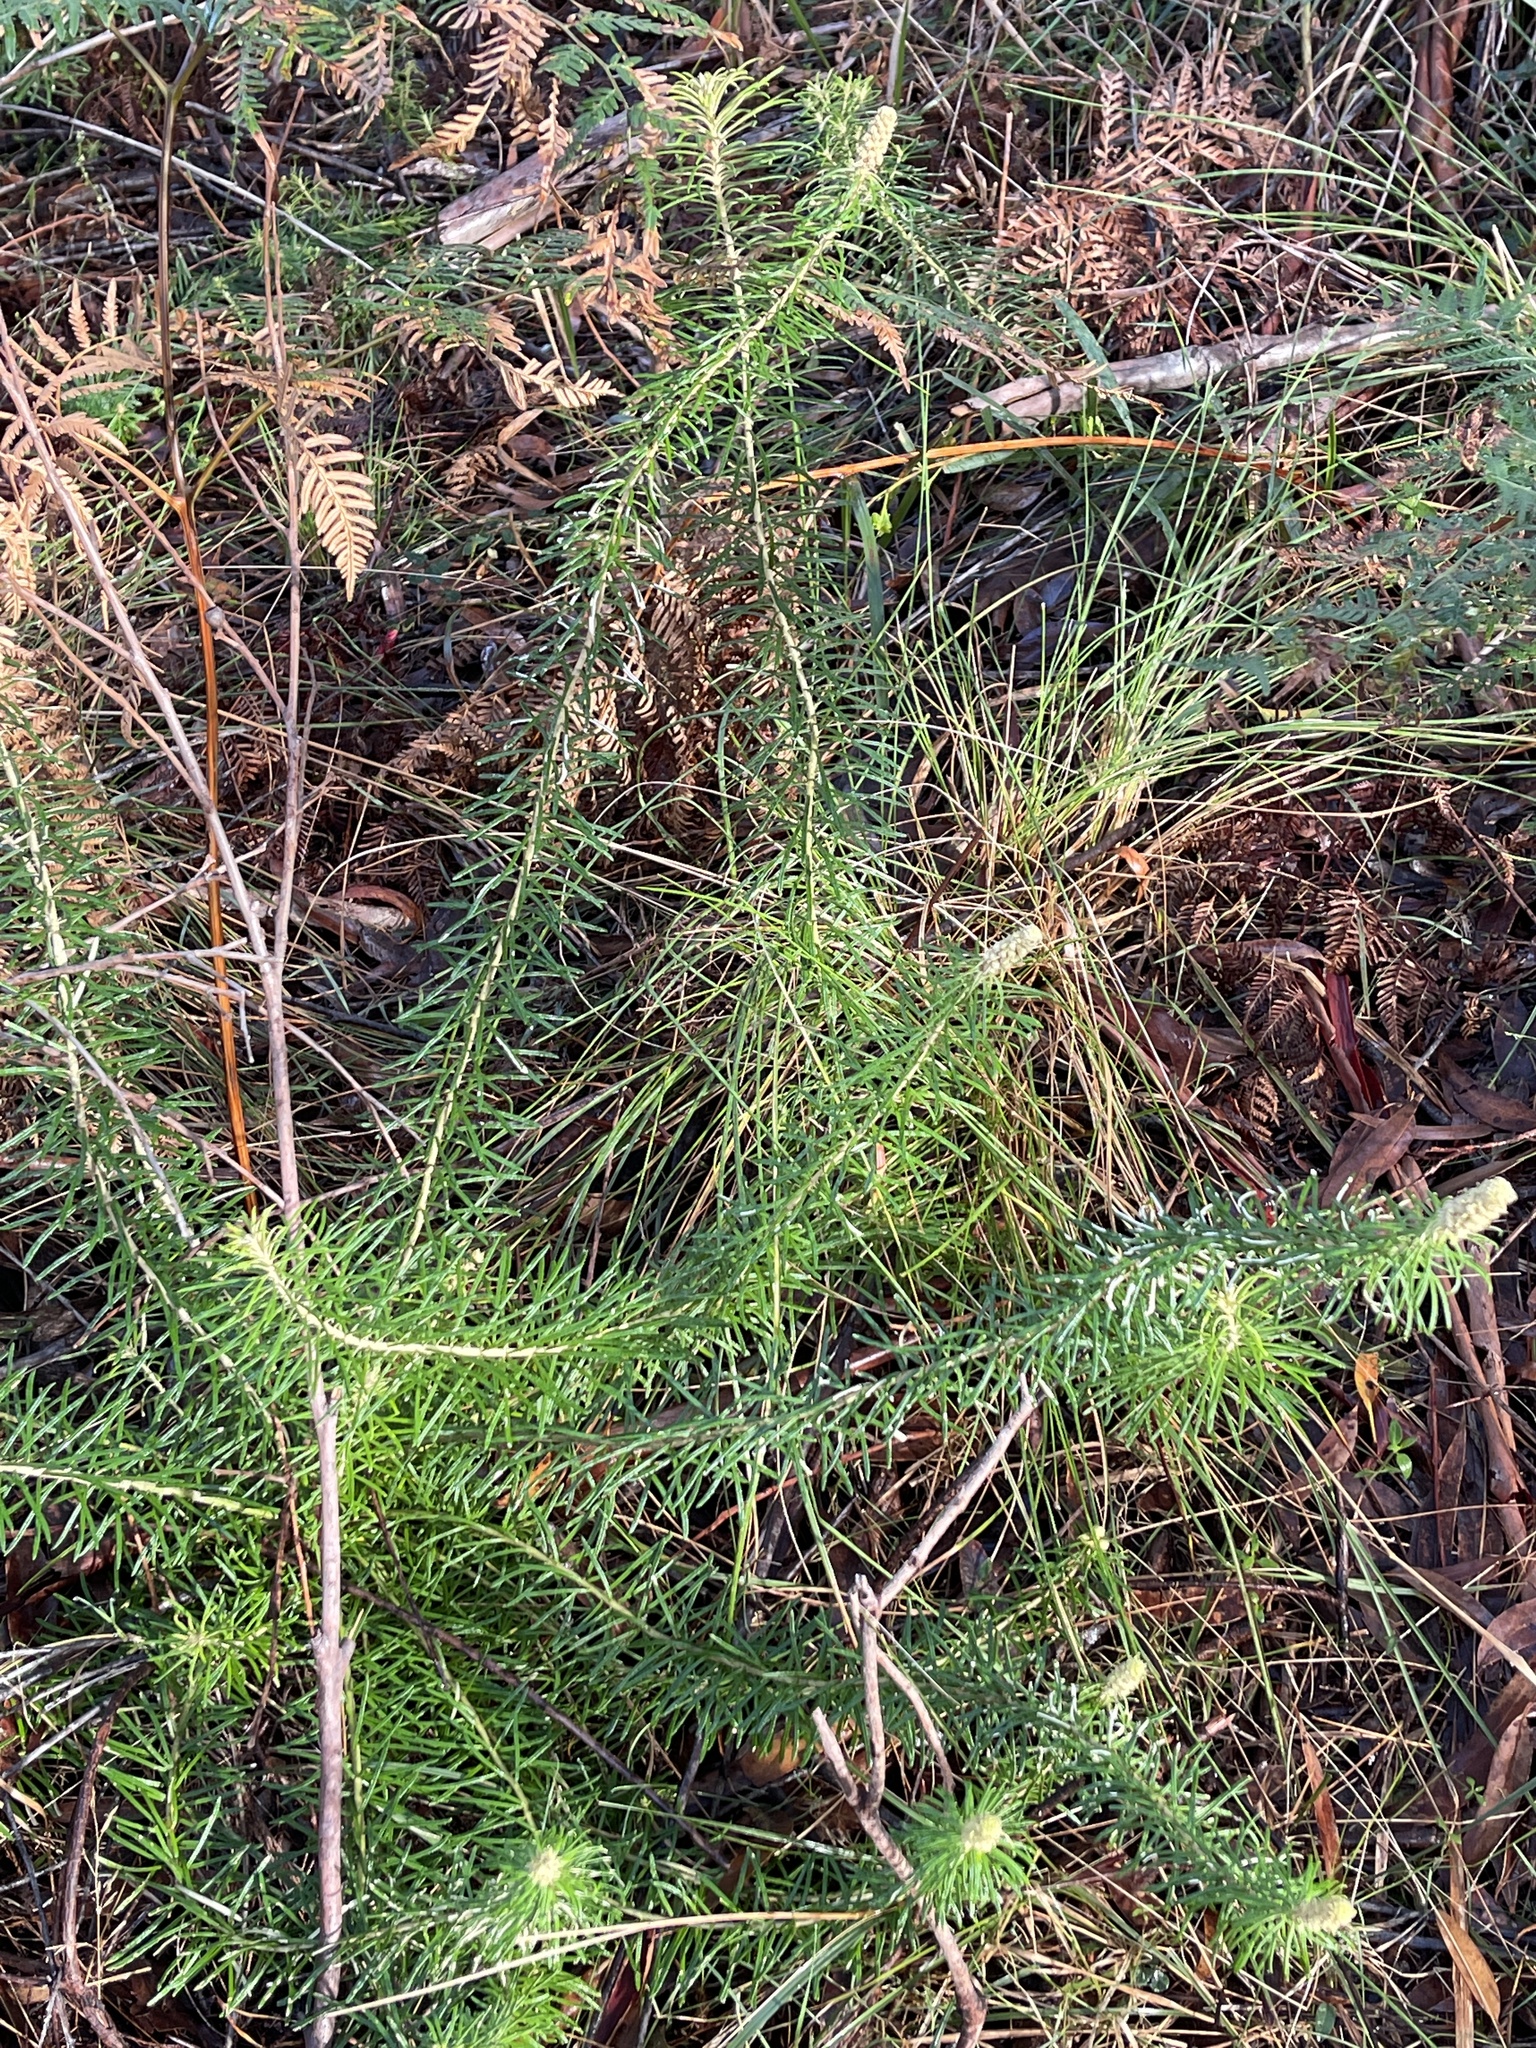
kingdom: Plantae
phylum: Tracheophyta
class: Magnoliopsida
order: Apiales
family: Araliaceae
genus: Astrotricha
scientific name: Astrotricha
